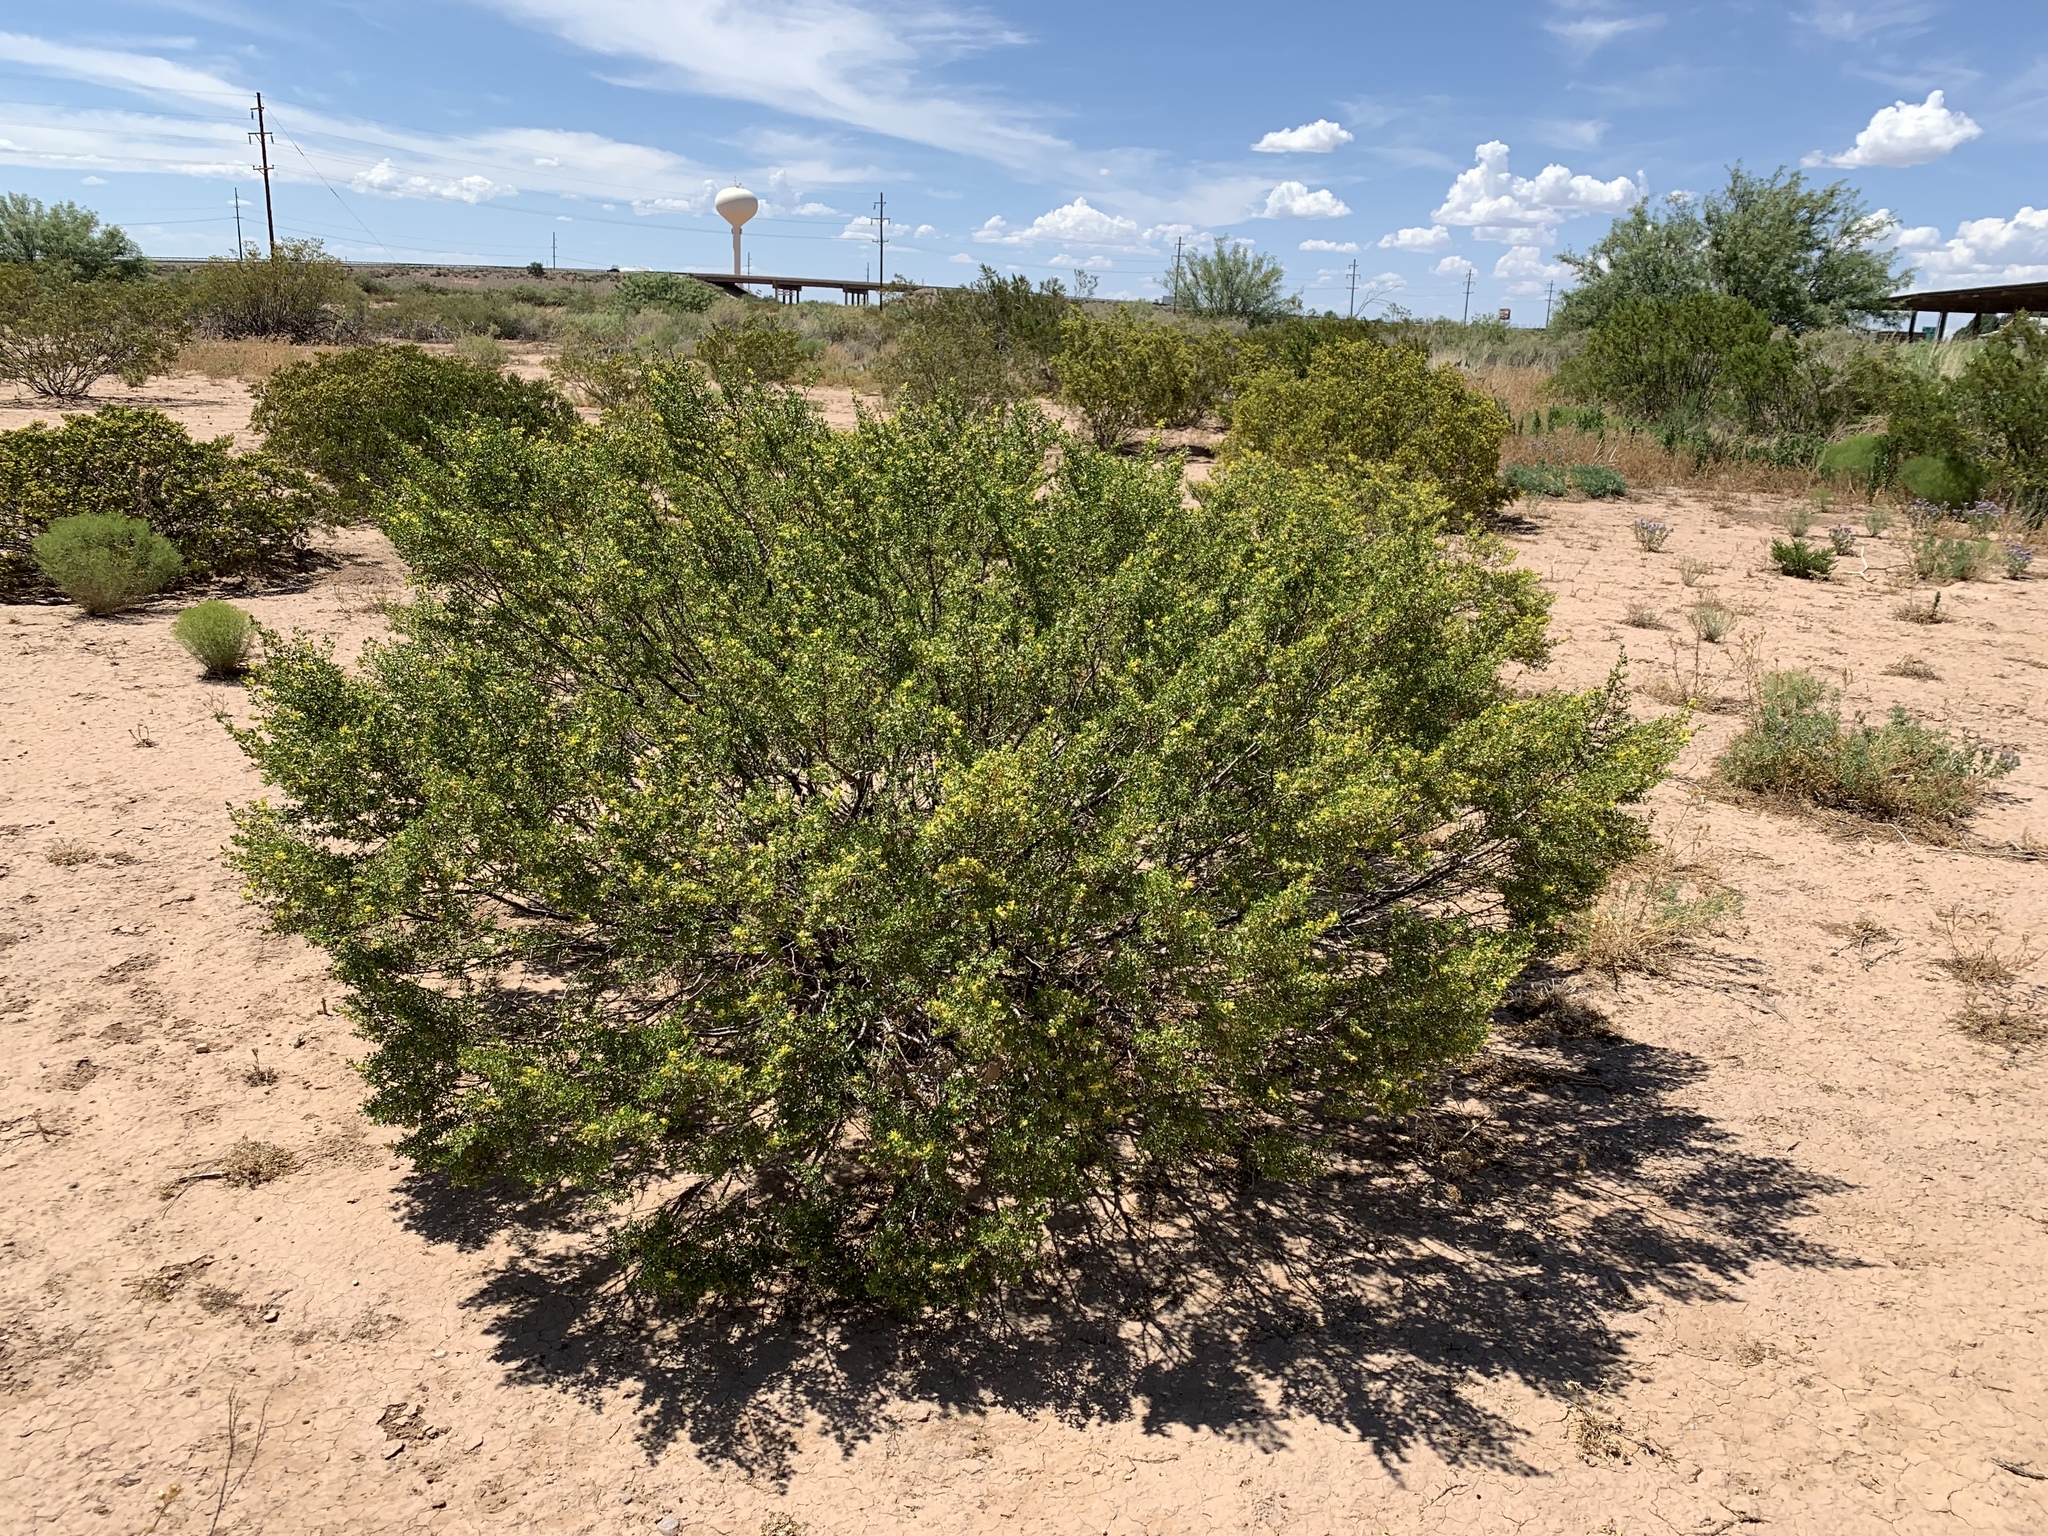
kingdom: Plantae
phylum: Tracheophyta
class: Magnoliopsida
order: Zygophyllales
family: Zygophyllaceae
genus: Larrea
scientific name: Larrea tridentata
